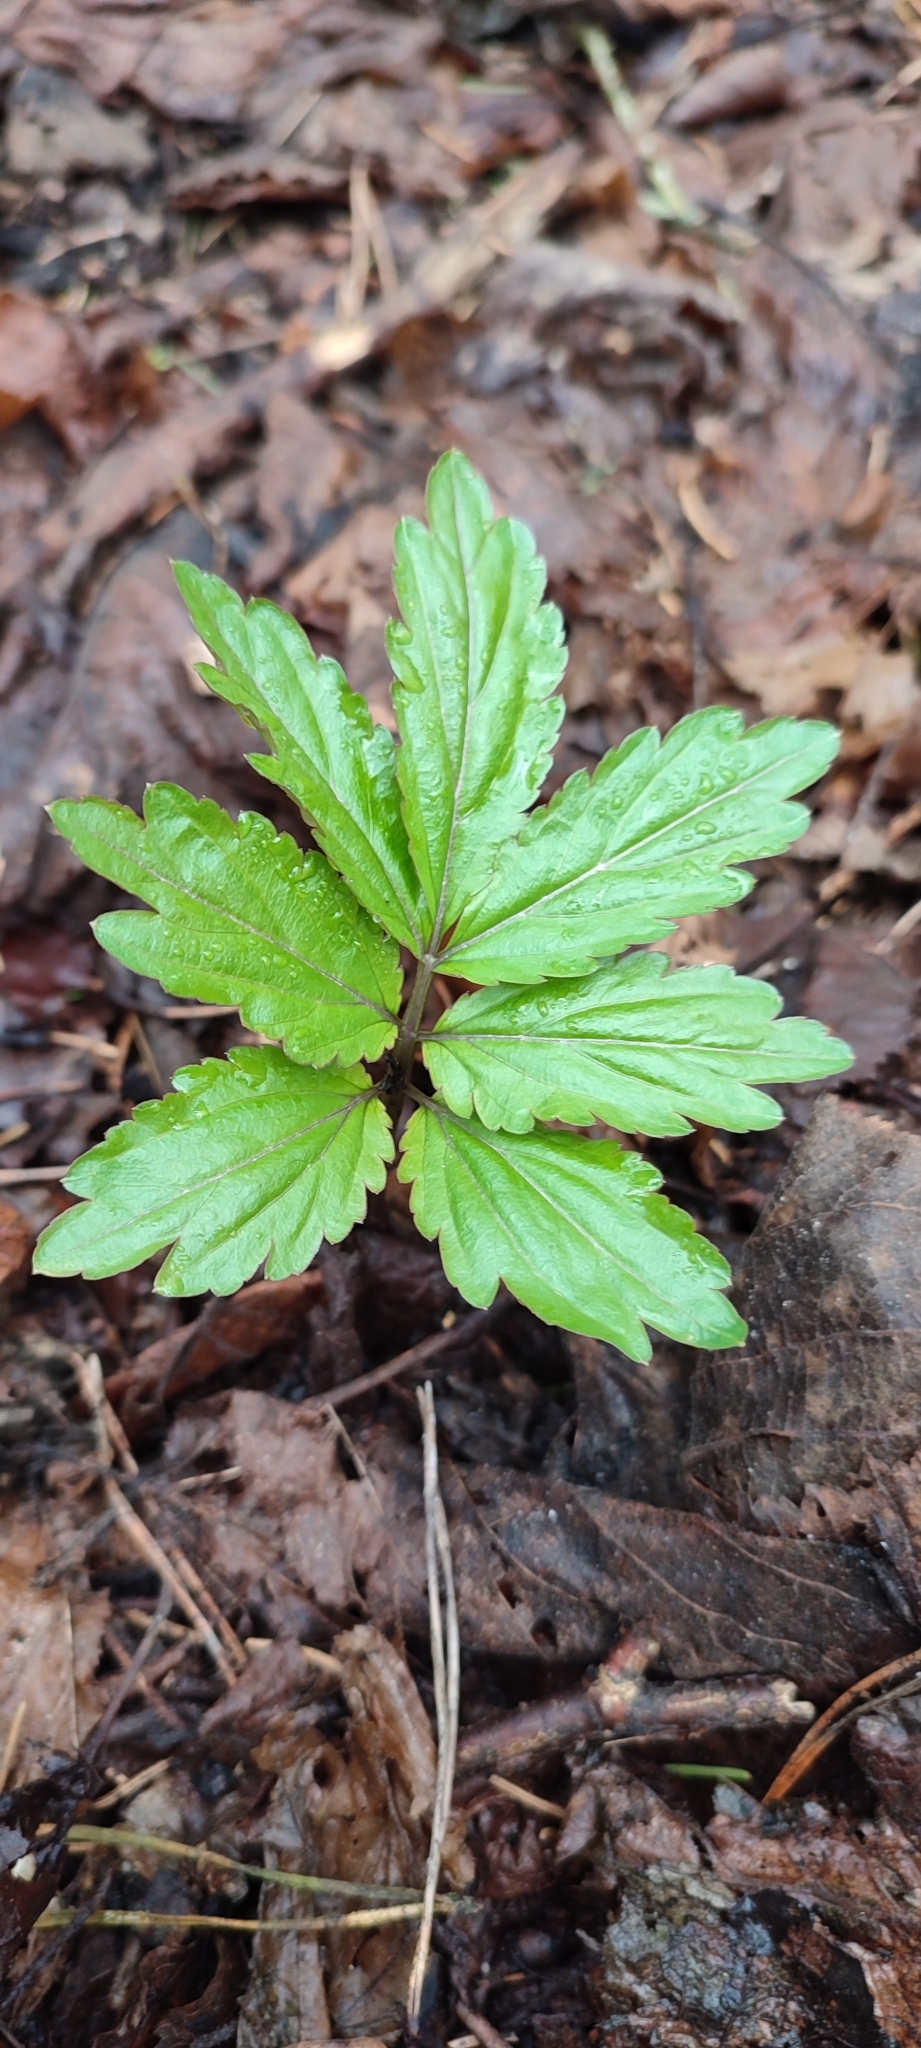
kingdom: Plantae
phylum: Tracheophyta
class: Magnoliopsida
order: Brassicales
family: Brassicaceae
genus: Cardamine
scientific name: Cardamine bulbifera
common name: Coralroot bittercress
